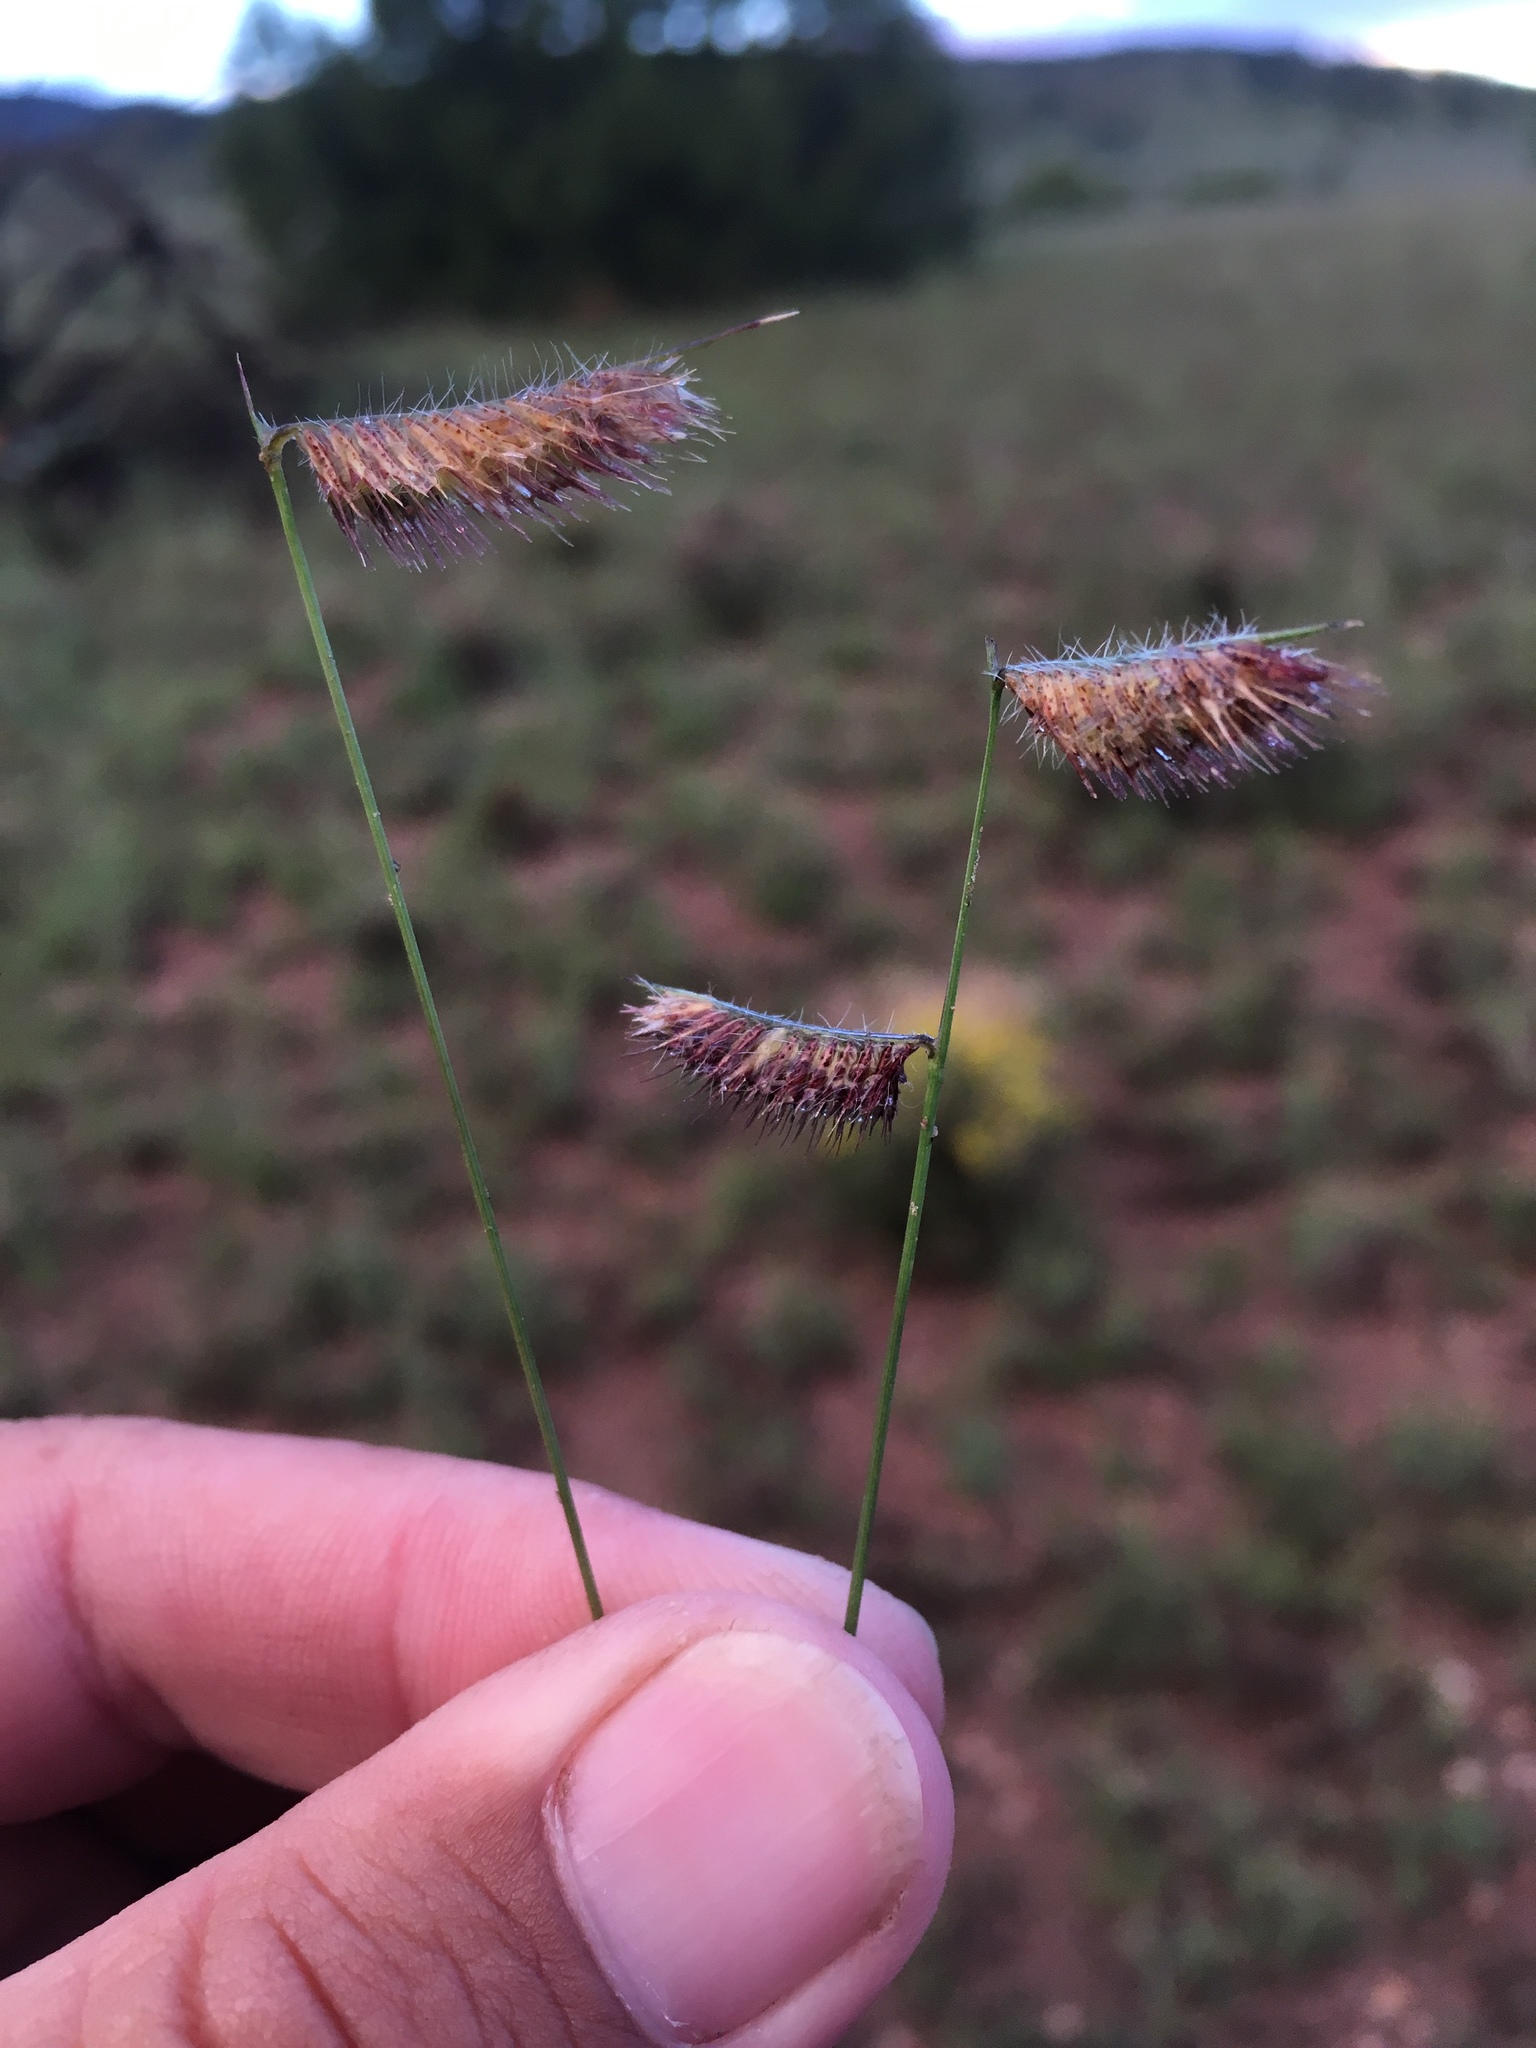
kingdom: Plantae
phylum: Tracheophyta
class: Liliopsida
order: Poales
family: Poaceae
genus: Bouteloua
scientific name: Bouteloua hirsuta
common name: Hairy grama
